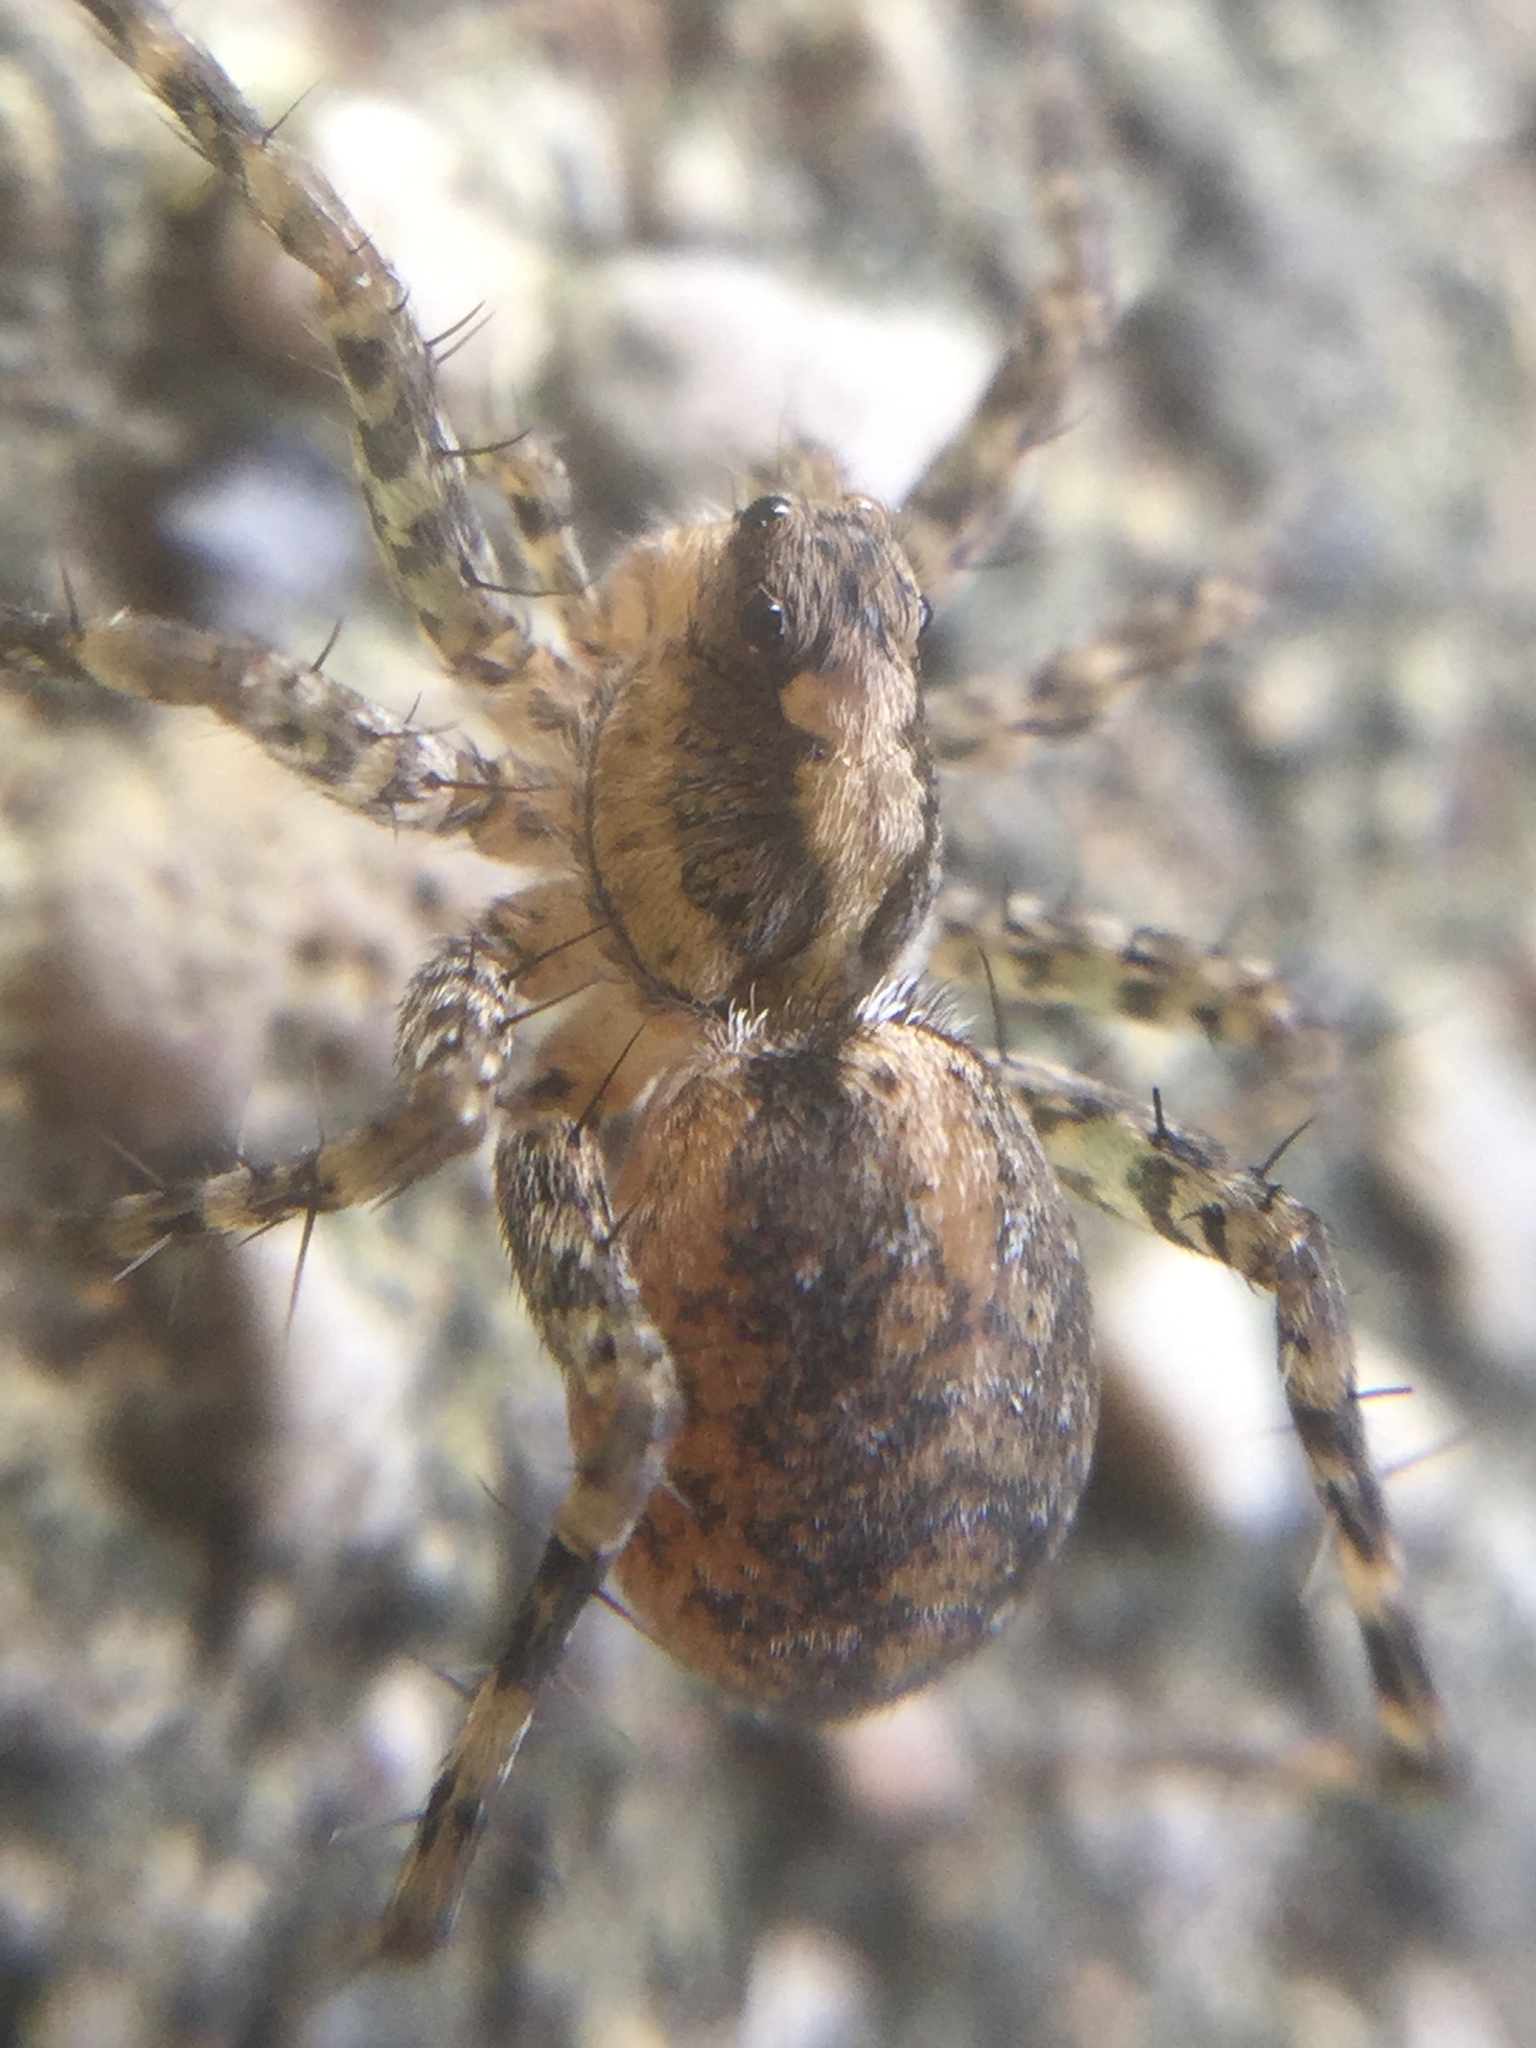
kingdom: Animalia
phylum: Arthropoda
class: Arachnida
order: Araneae
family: Lycosidae
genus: Pardosa
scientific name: Pardosa milvina
